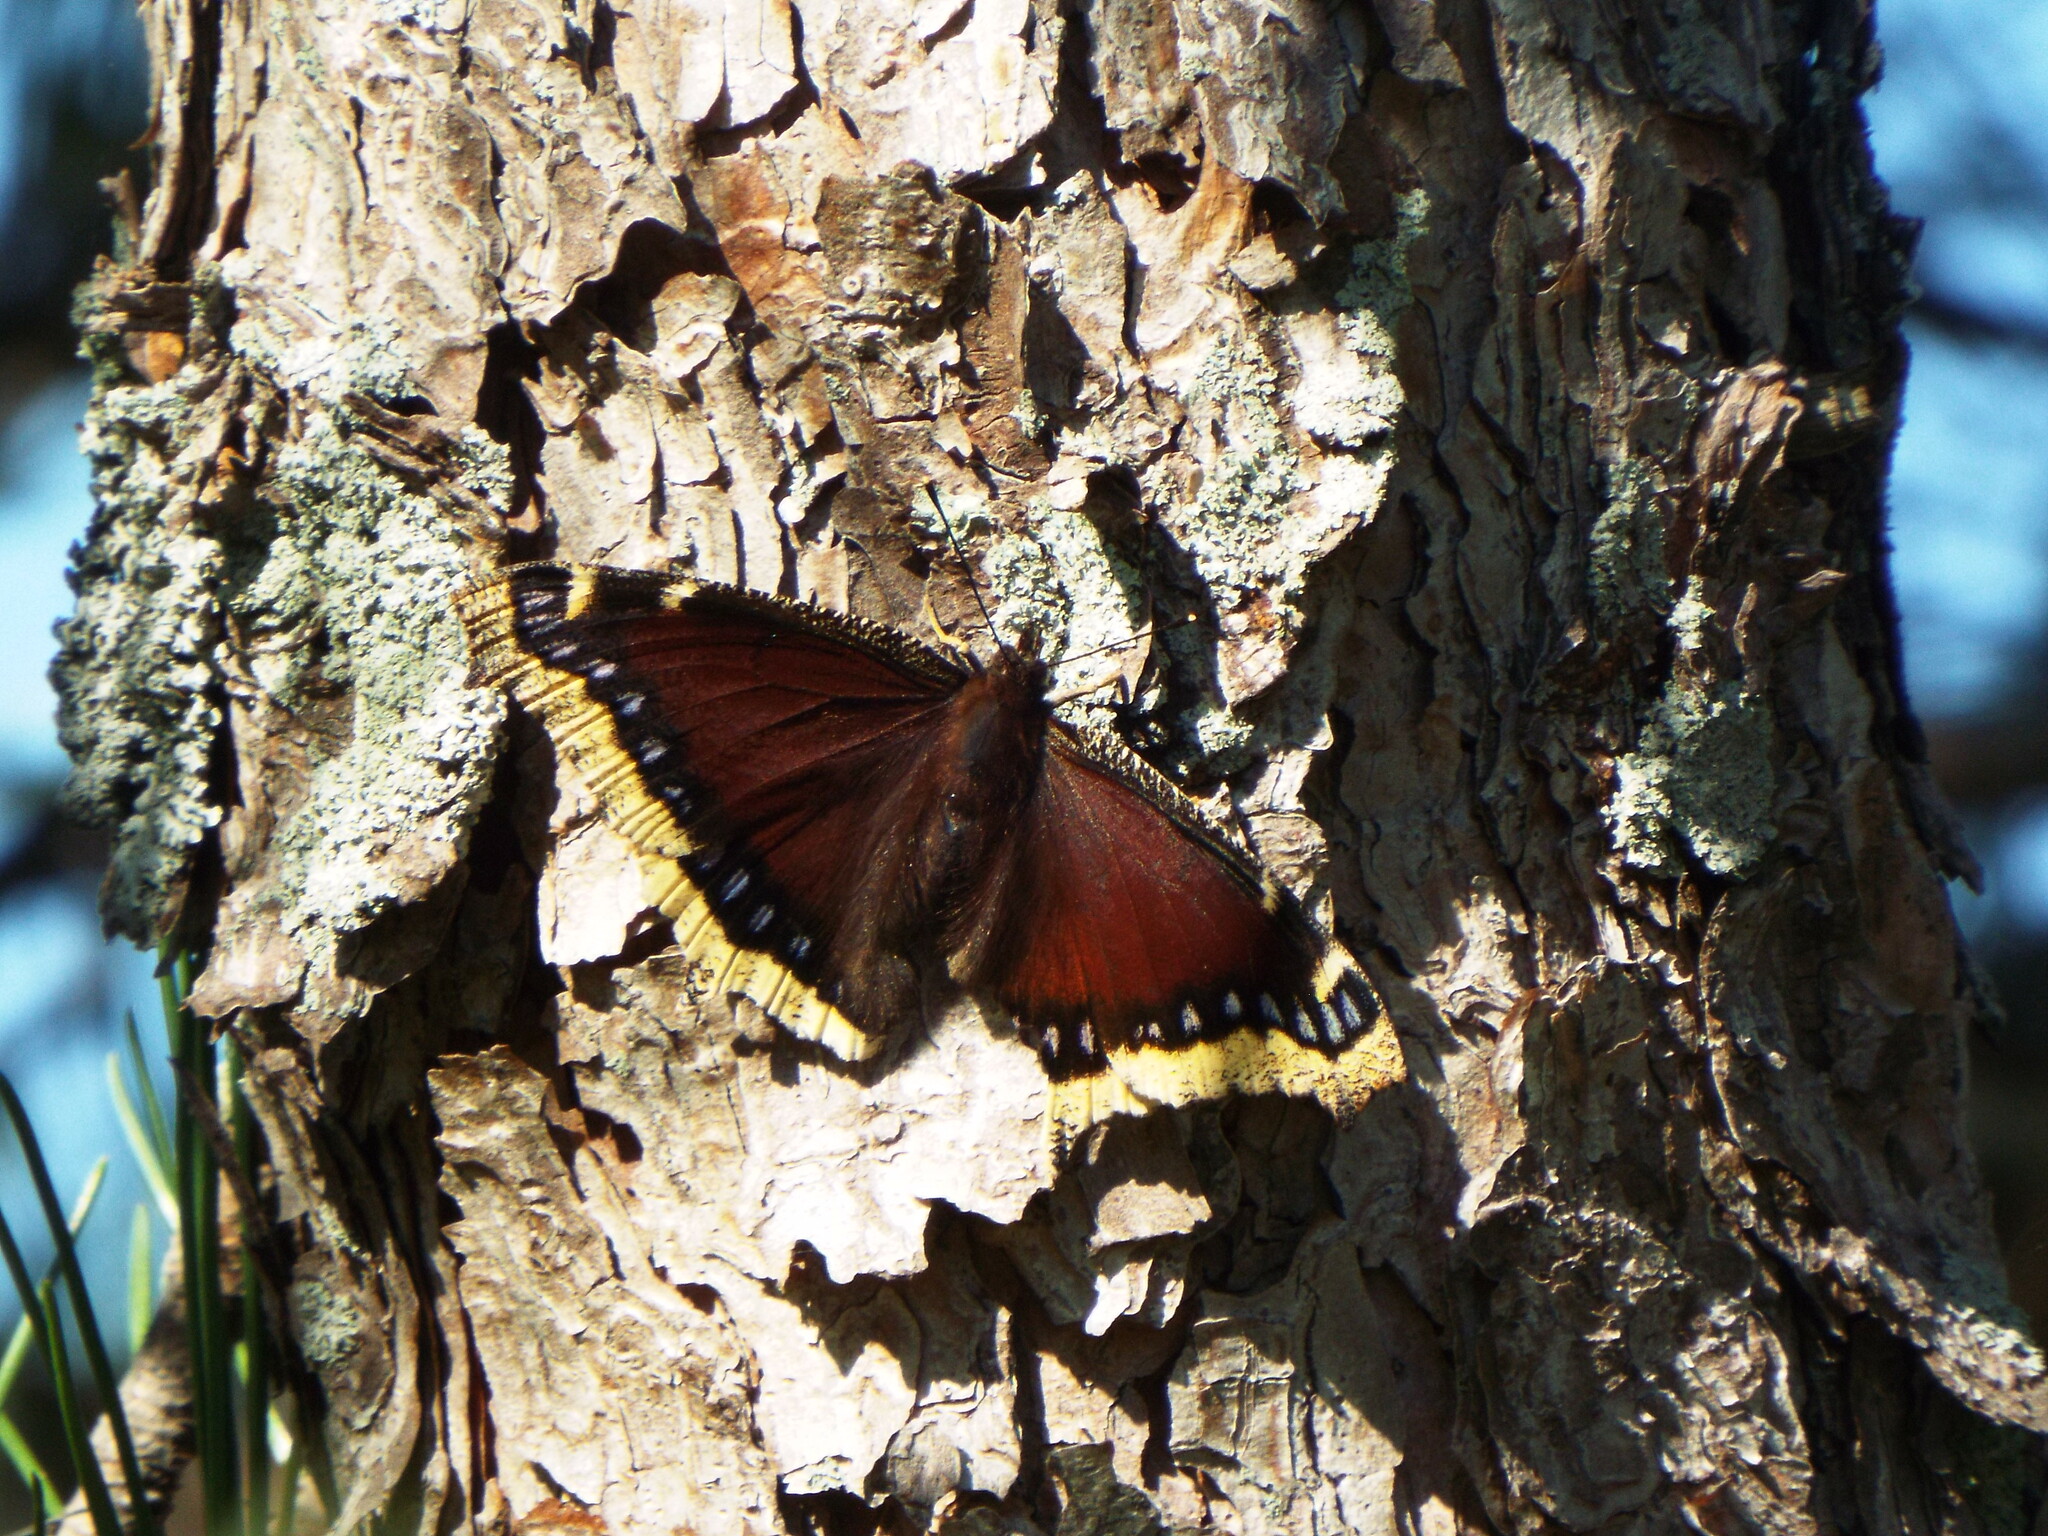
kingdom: Animalia
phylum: Arthropoda
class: Insecta
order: Lepidoptera
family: Nymphalidae
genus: Nymphalis
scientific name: Nymphalis antiopa
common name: Camberwell beauty
